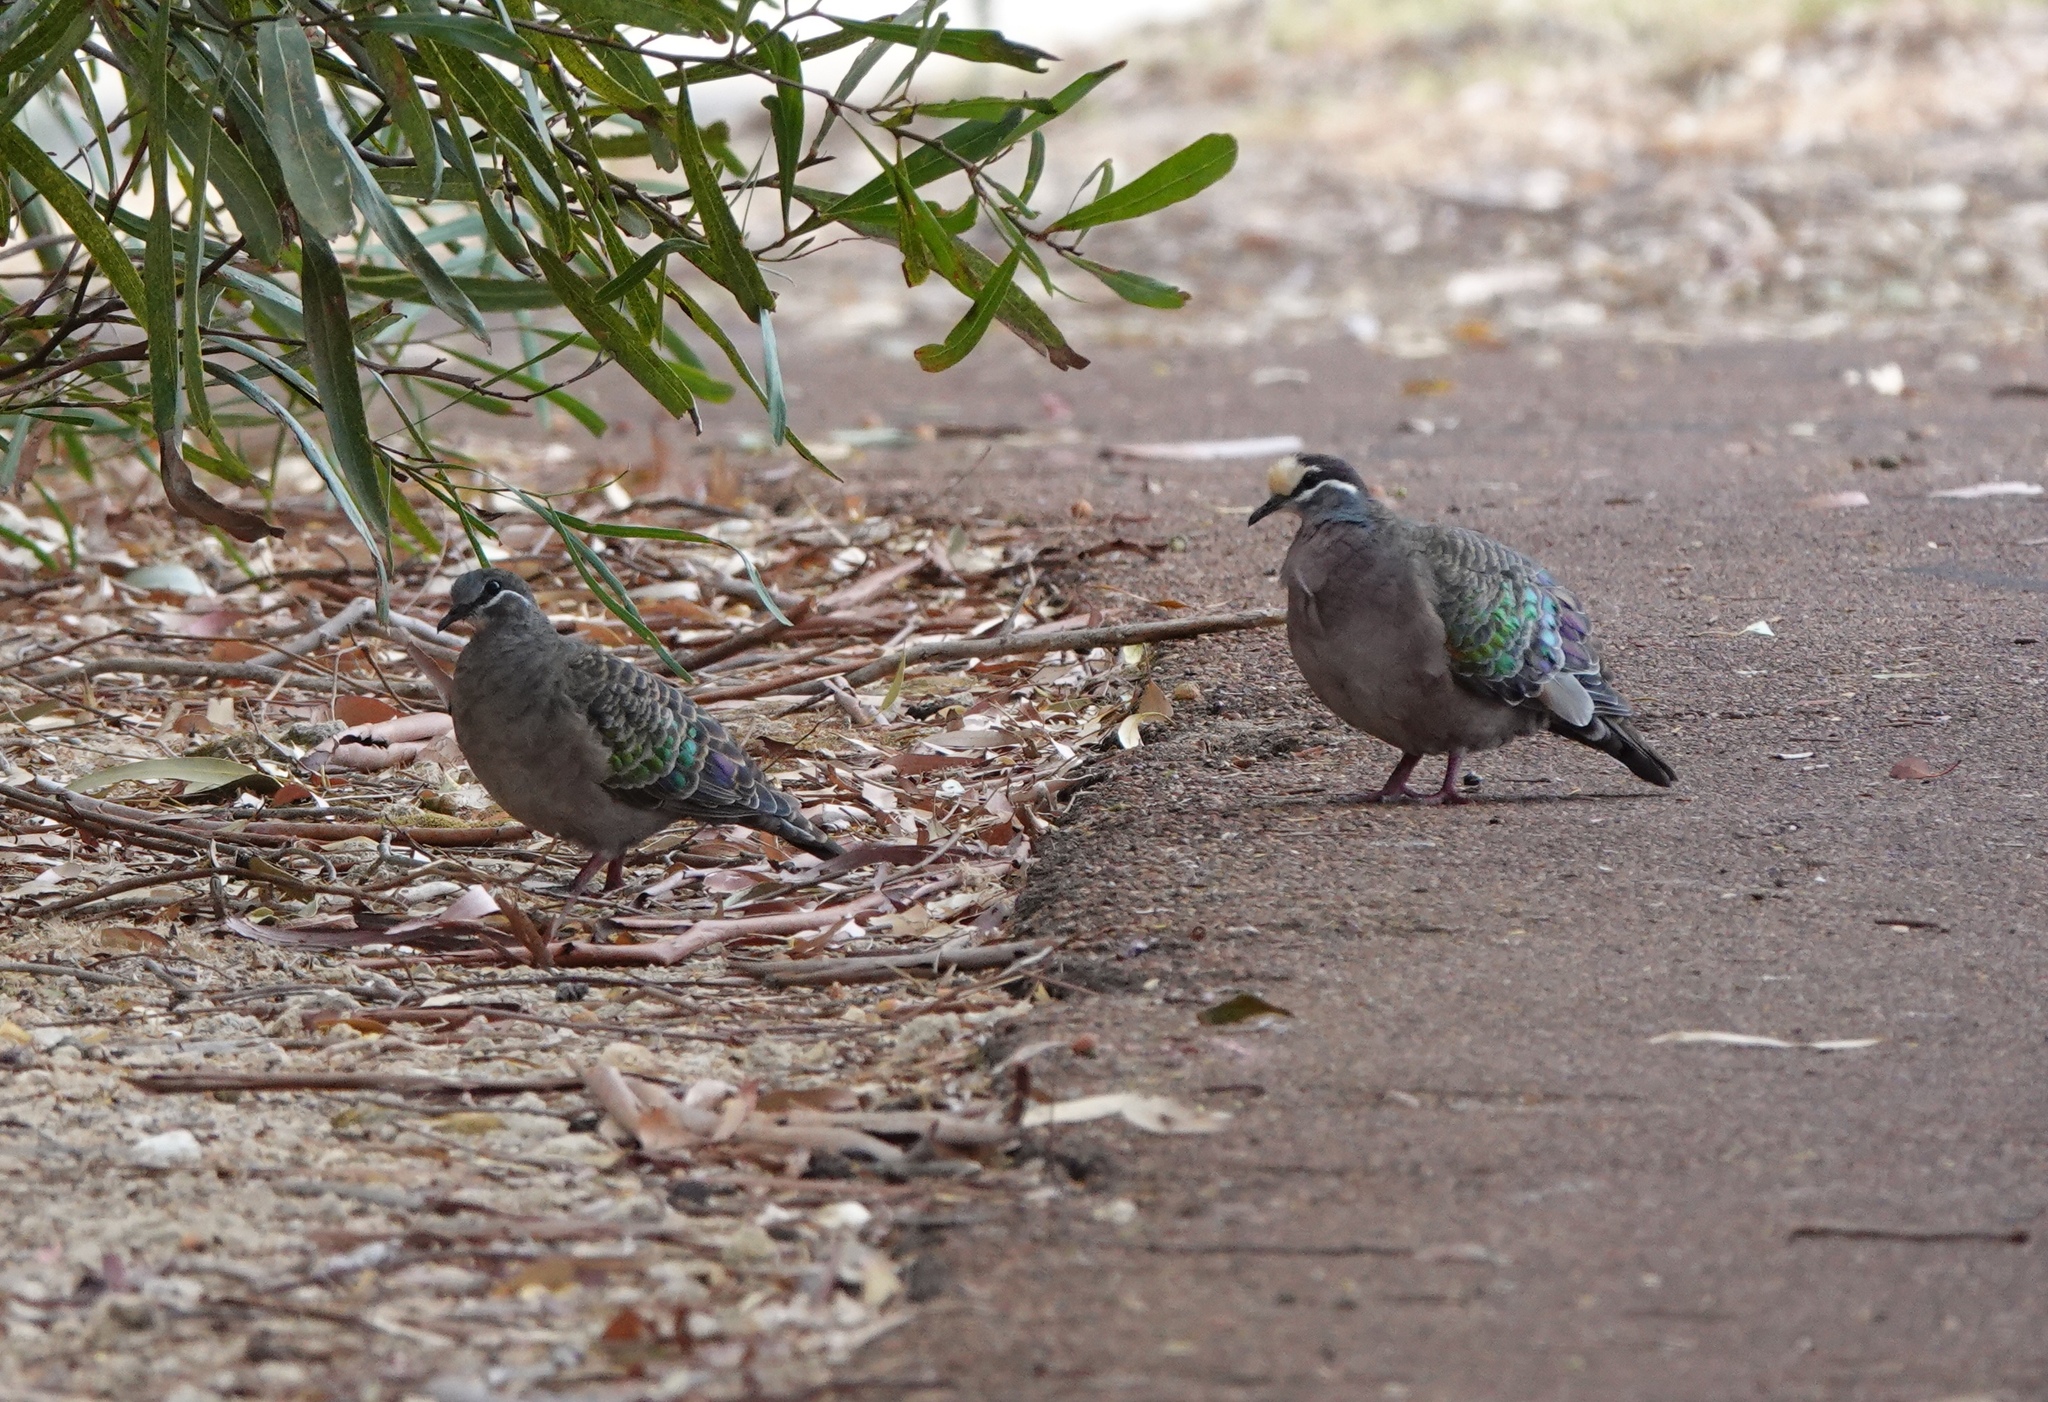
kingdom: Animalia
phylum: Chordata
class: Aves
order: Columbiformes
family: Columbidae
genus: Phaps
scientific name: Phaps chalcoptera
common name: Common bronzewing
